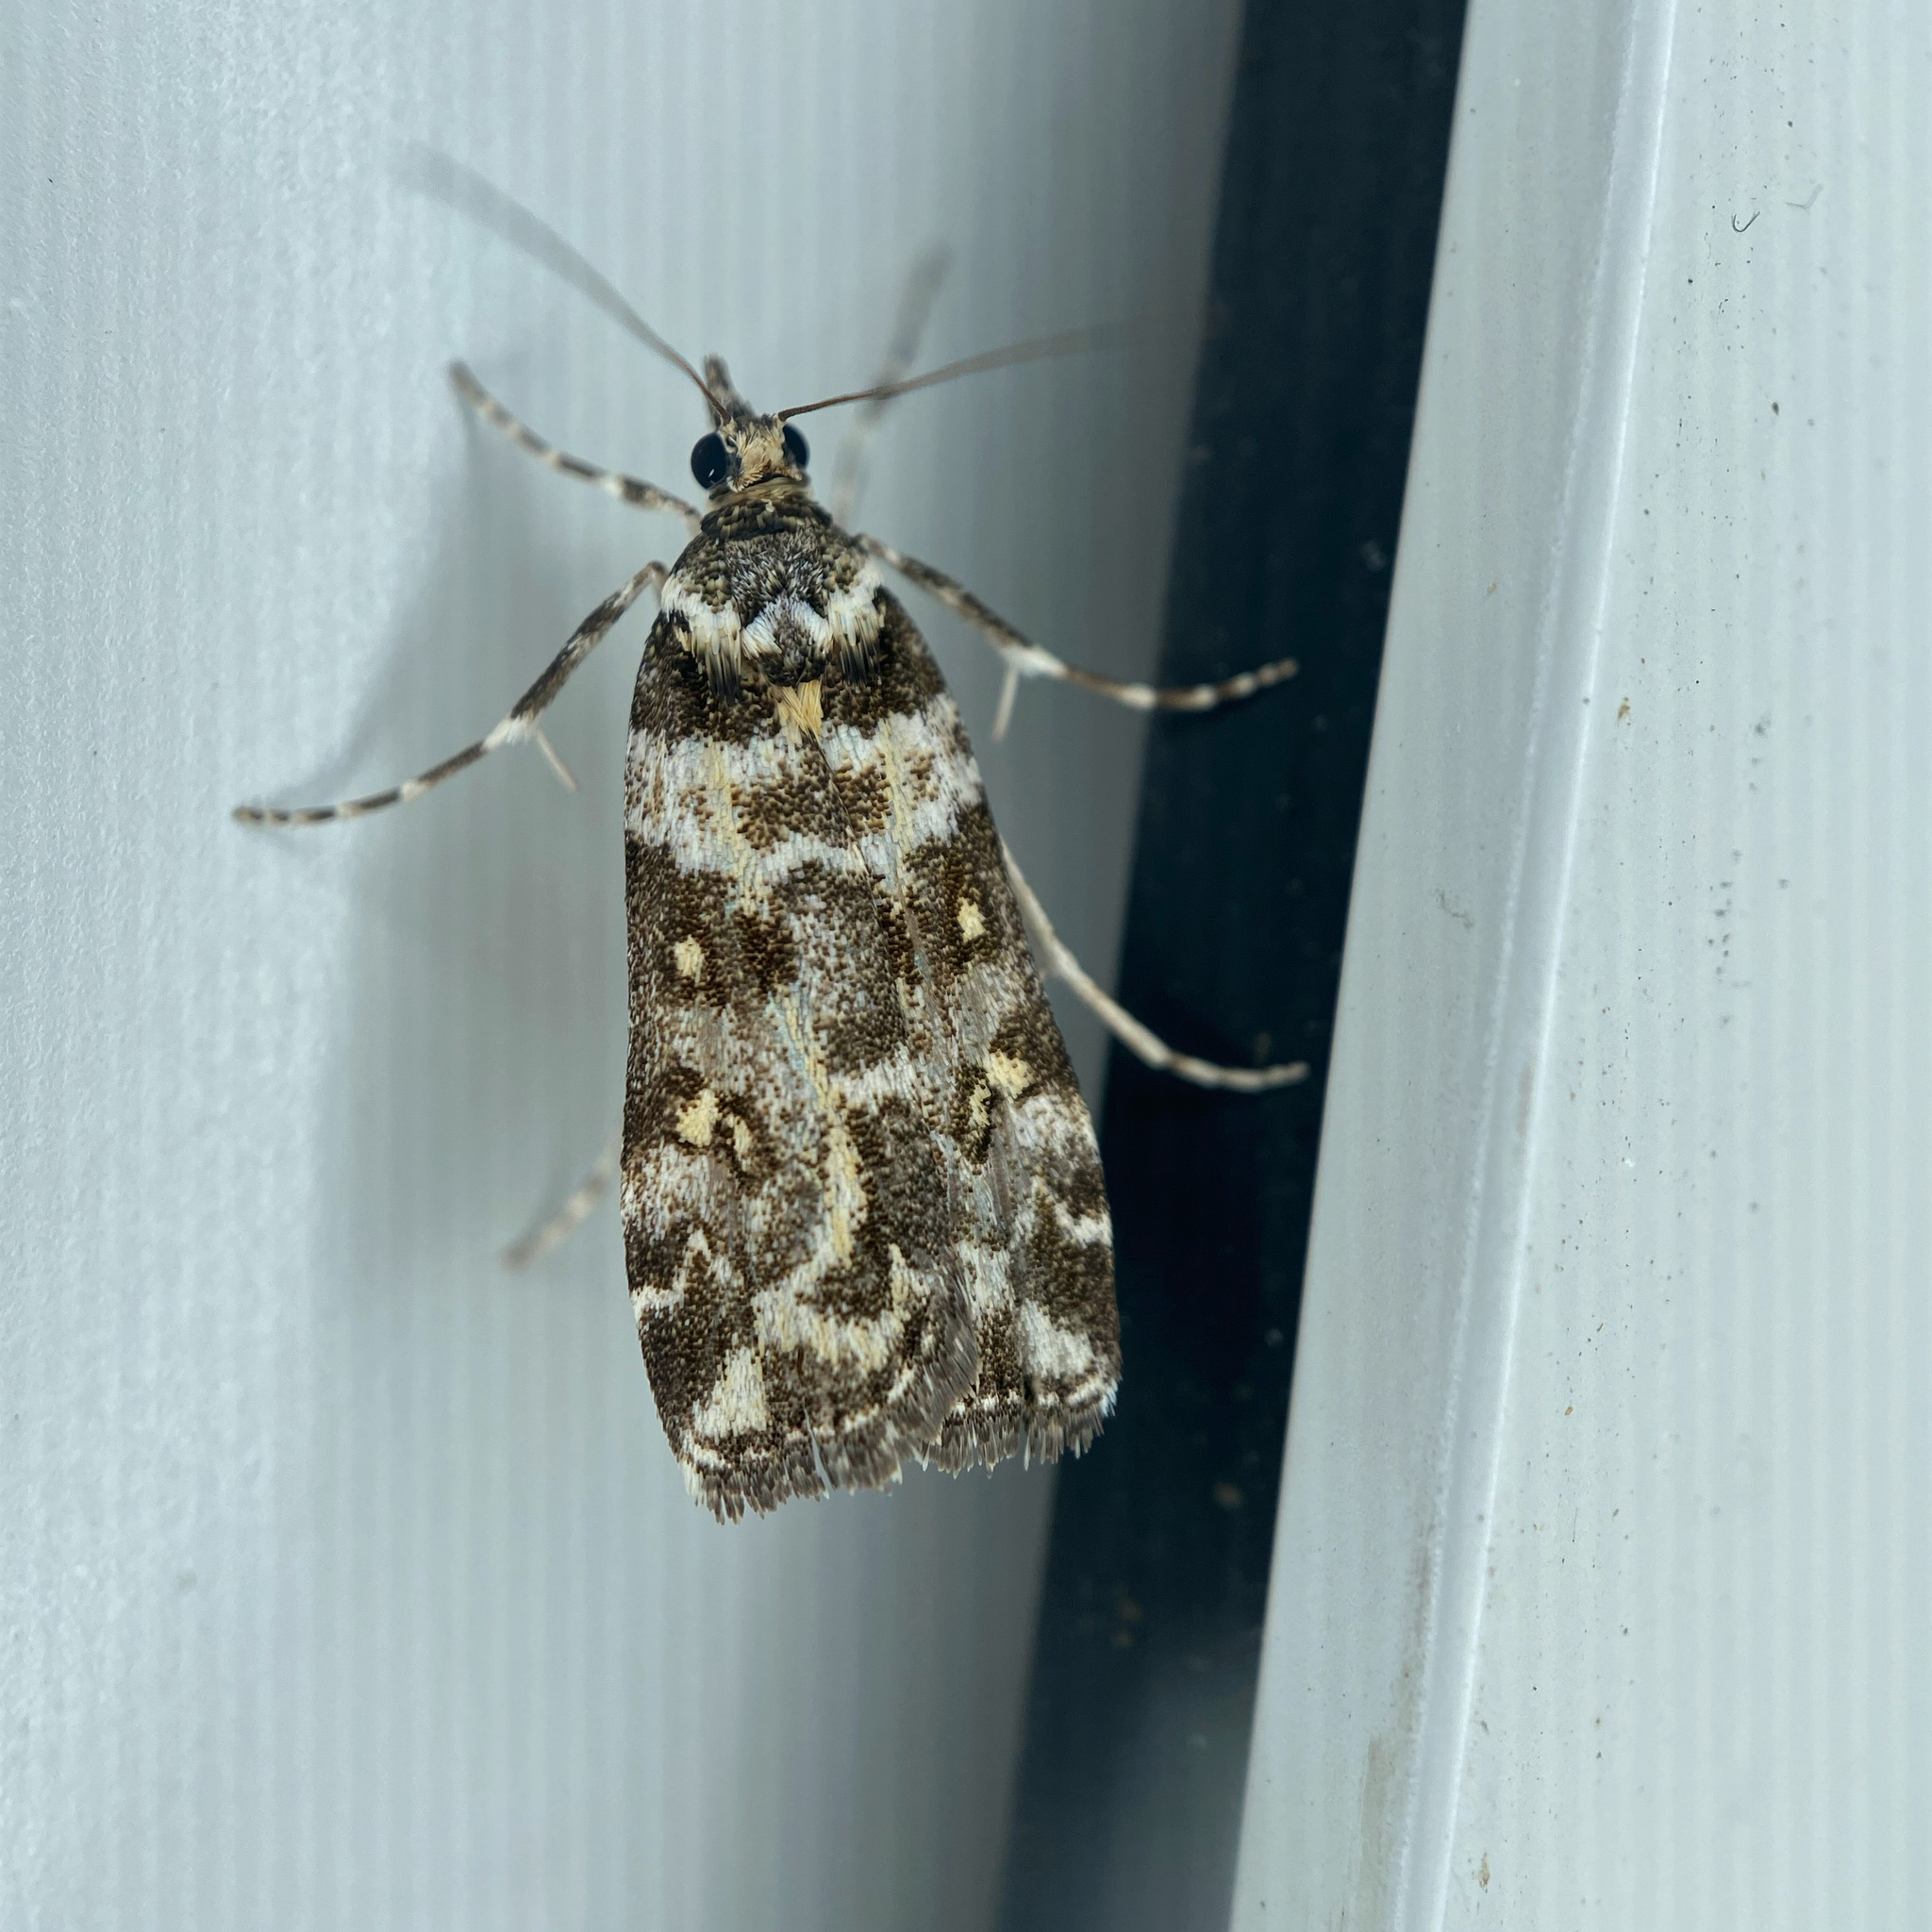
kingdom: Animalia
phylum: Arthropoda
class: Insecta
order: Lepidoptera
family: Crambidae
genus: Eudonia
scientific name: Eudonia diphtheralis
